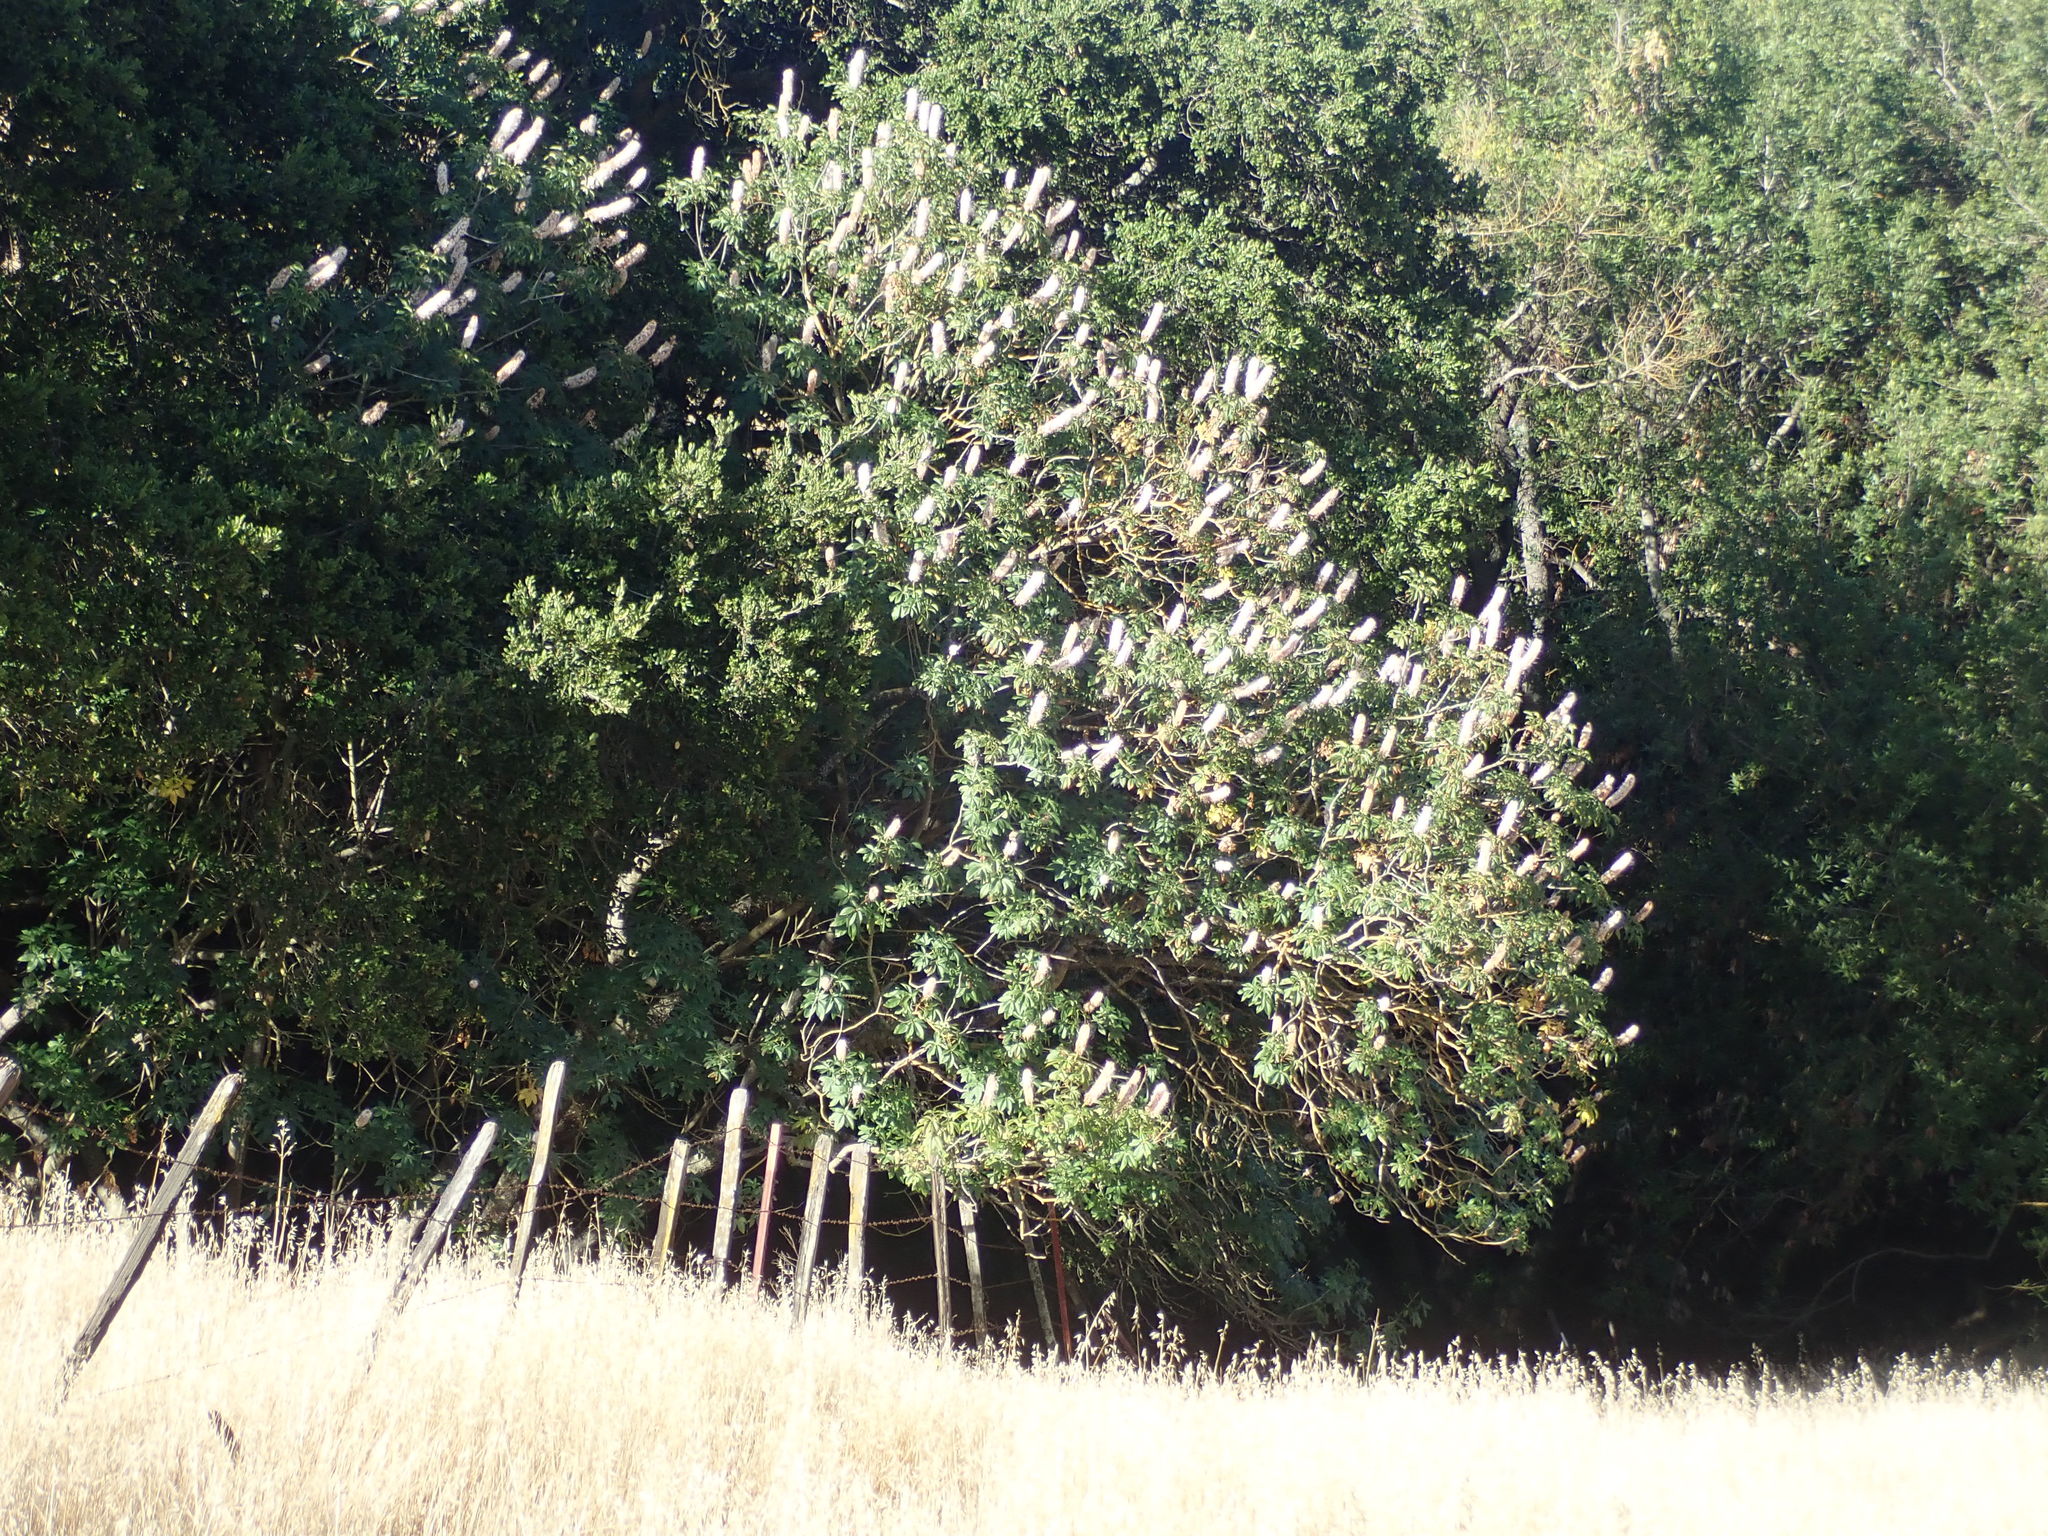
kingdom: Plantae
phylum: Tracheophyta
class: Magnoliopsida
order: Sapindales
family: Sapindaceae
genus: Aesculus
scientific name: Aesculus californica
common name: California buckeye
